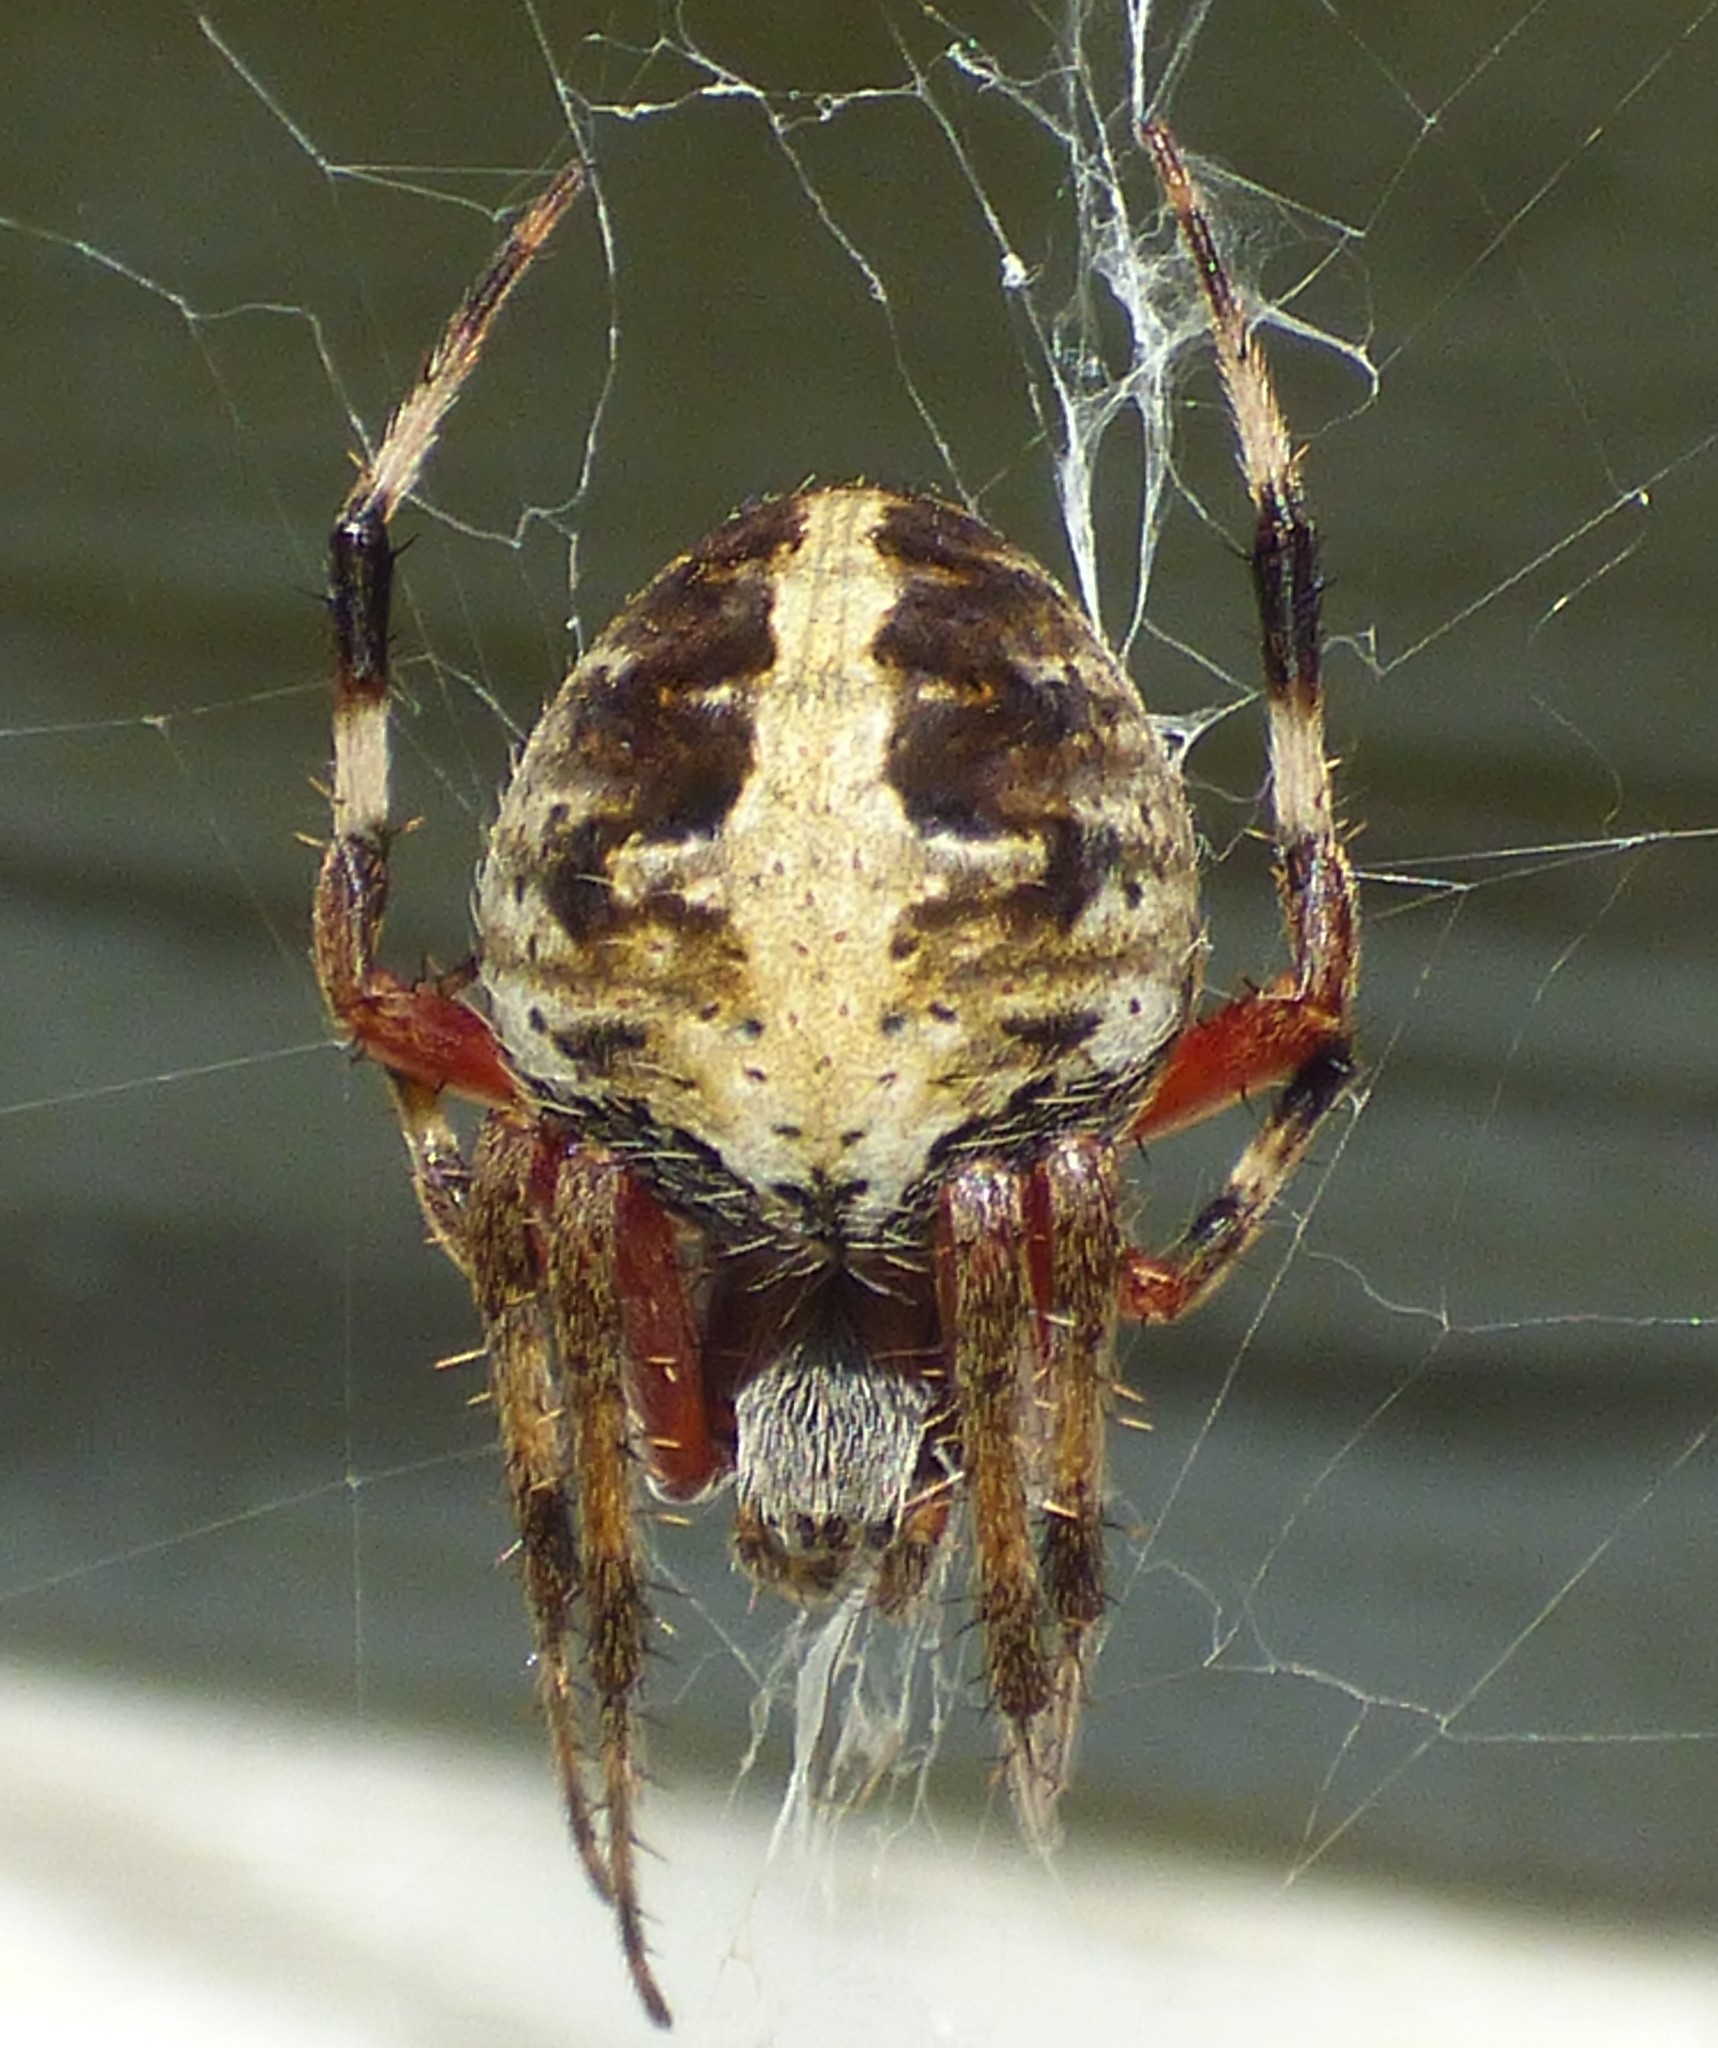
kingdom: Animalia
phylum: Arthropoda
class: Arachnida
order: Araneae
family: Araneidae
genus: Neoscona
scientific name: Neoscona domiciliorum
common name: Red-femured spotted orbweaver
